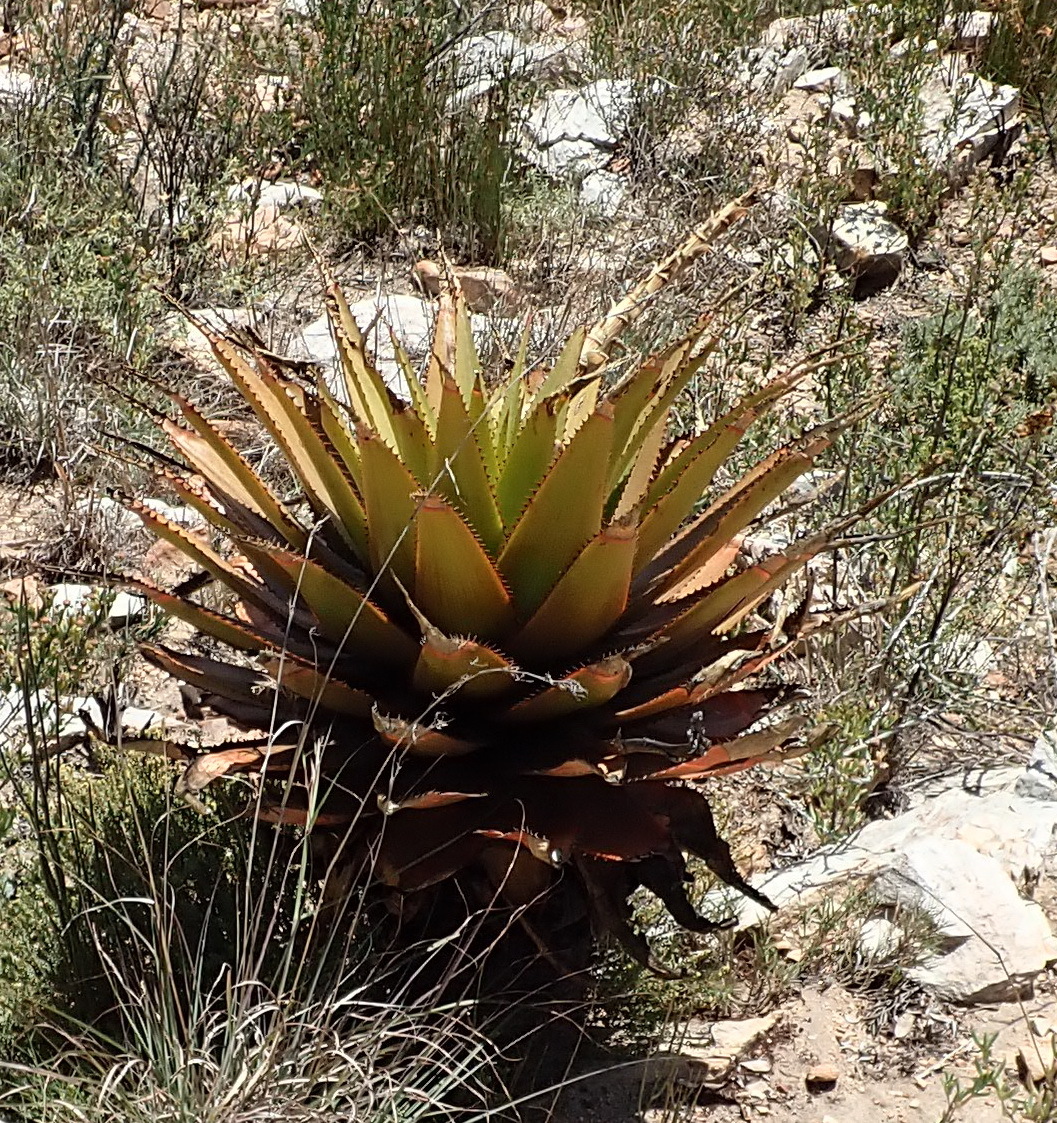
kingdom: Plantae
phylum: Tracheophyta
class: Liliopsida
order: Asparagales
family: Asphodelaceae
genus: Aloe
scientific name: Aloe lineata
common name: Lined red-spined aloe
